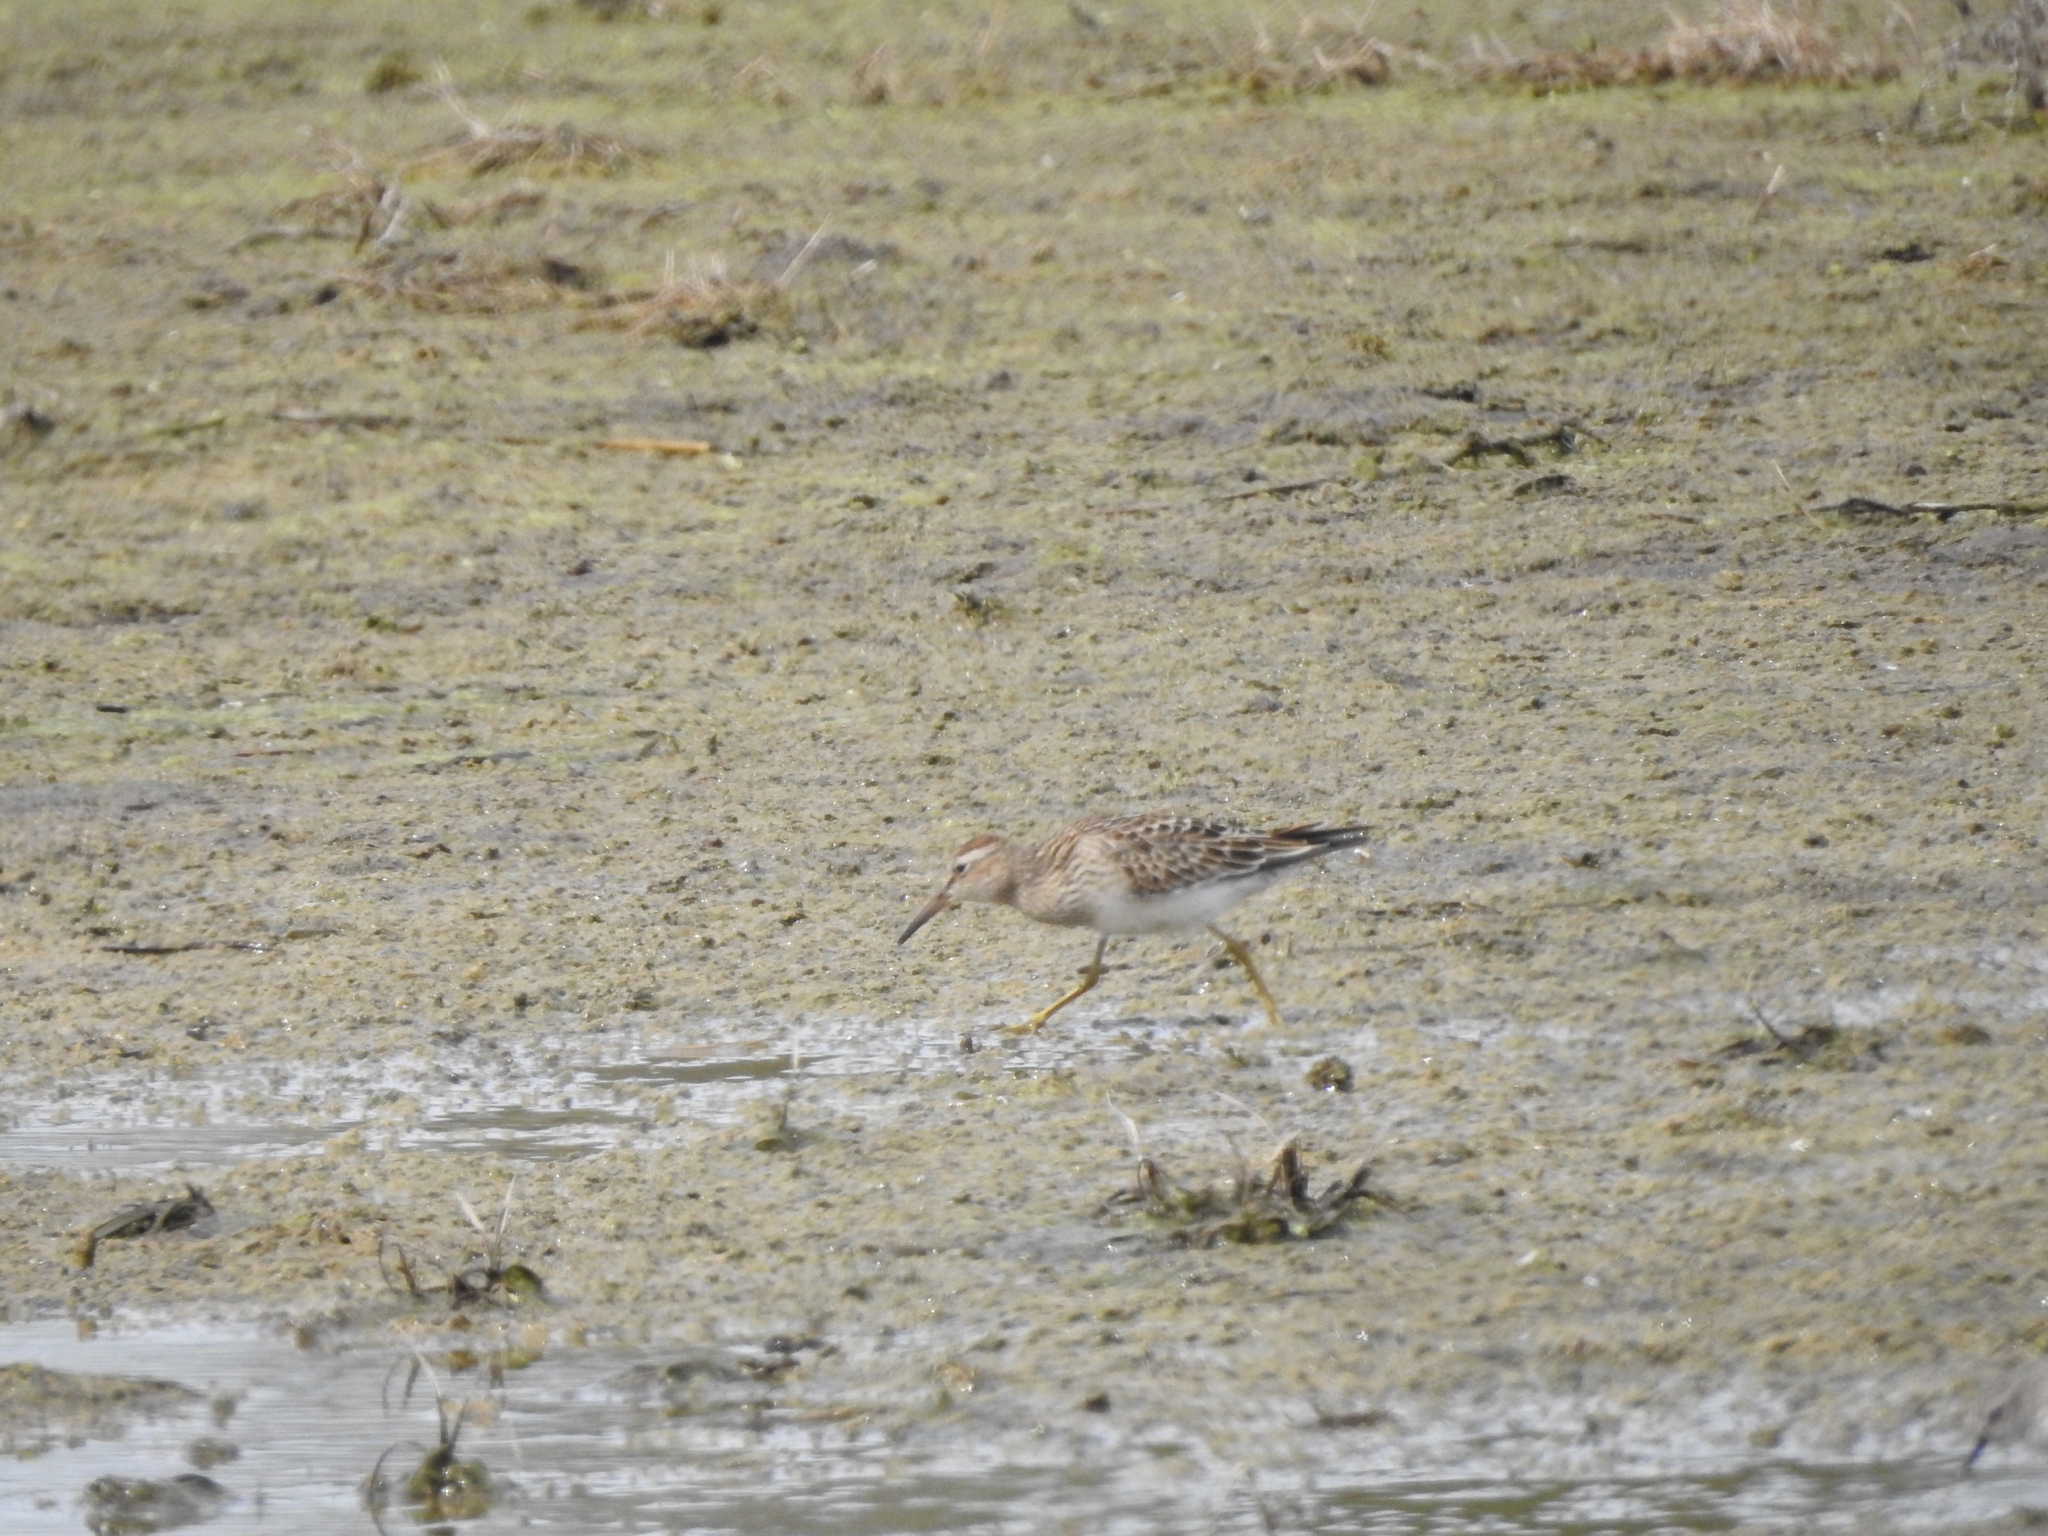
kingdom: Animalia
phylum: Chordata
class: Aves
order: Charadriiformes
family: Scolopacidae
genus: Calidris
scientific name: Calidris melanotos
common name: Pectoral sandpiper
